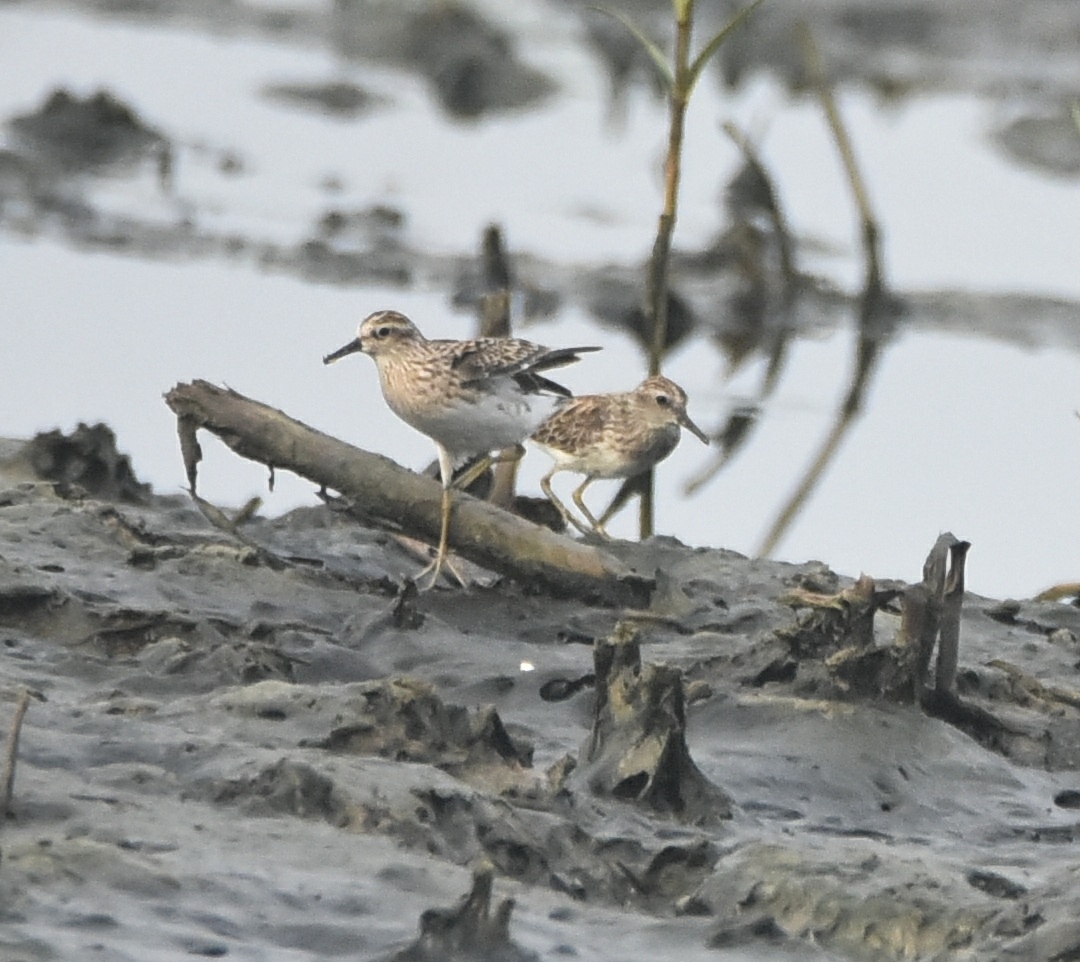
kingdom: Animalia
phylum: Chordata
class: Aves
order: Charadriiformes
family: Scolopacidae
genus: Calidris
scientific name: Calidris subminuta
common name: Long-toed stint
